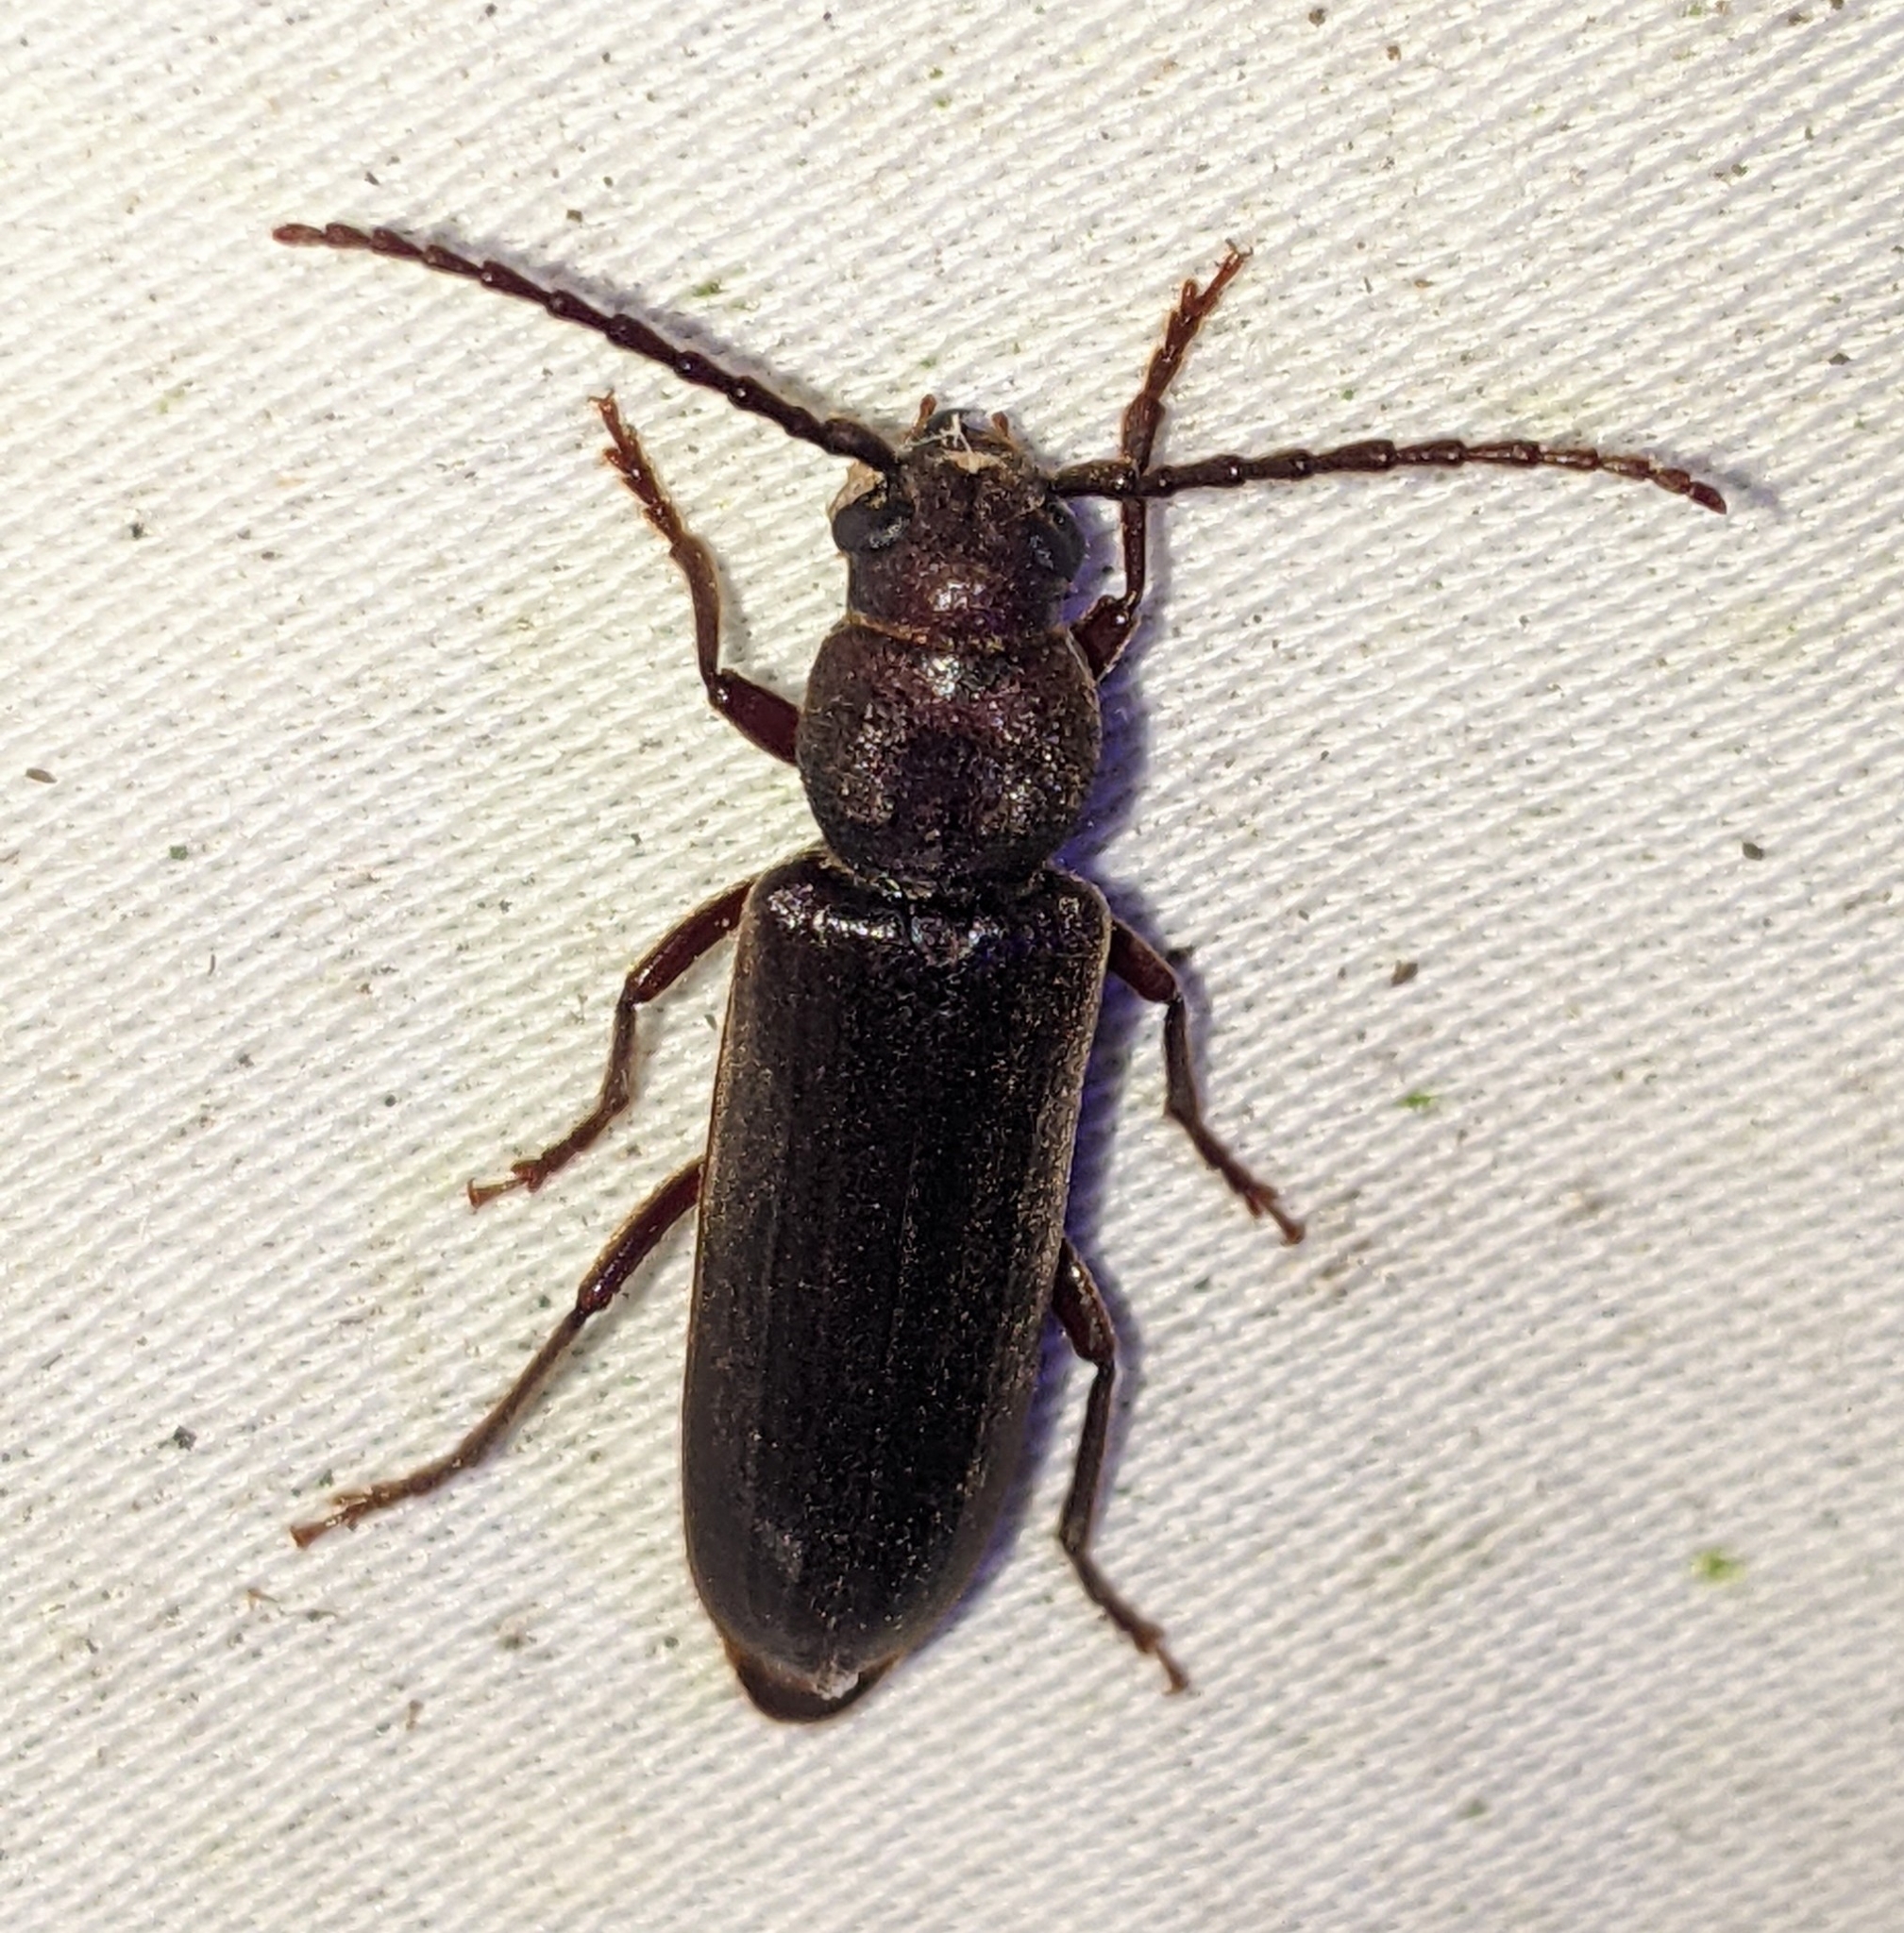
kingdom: Animalia
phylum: Arthropoda
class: Insecta
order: Coleoptera
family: Cerambycidae
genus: Asemum
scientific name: Asemum nitidum
